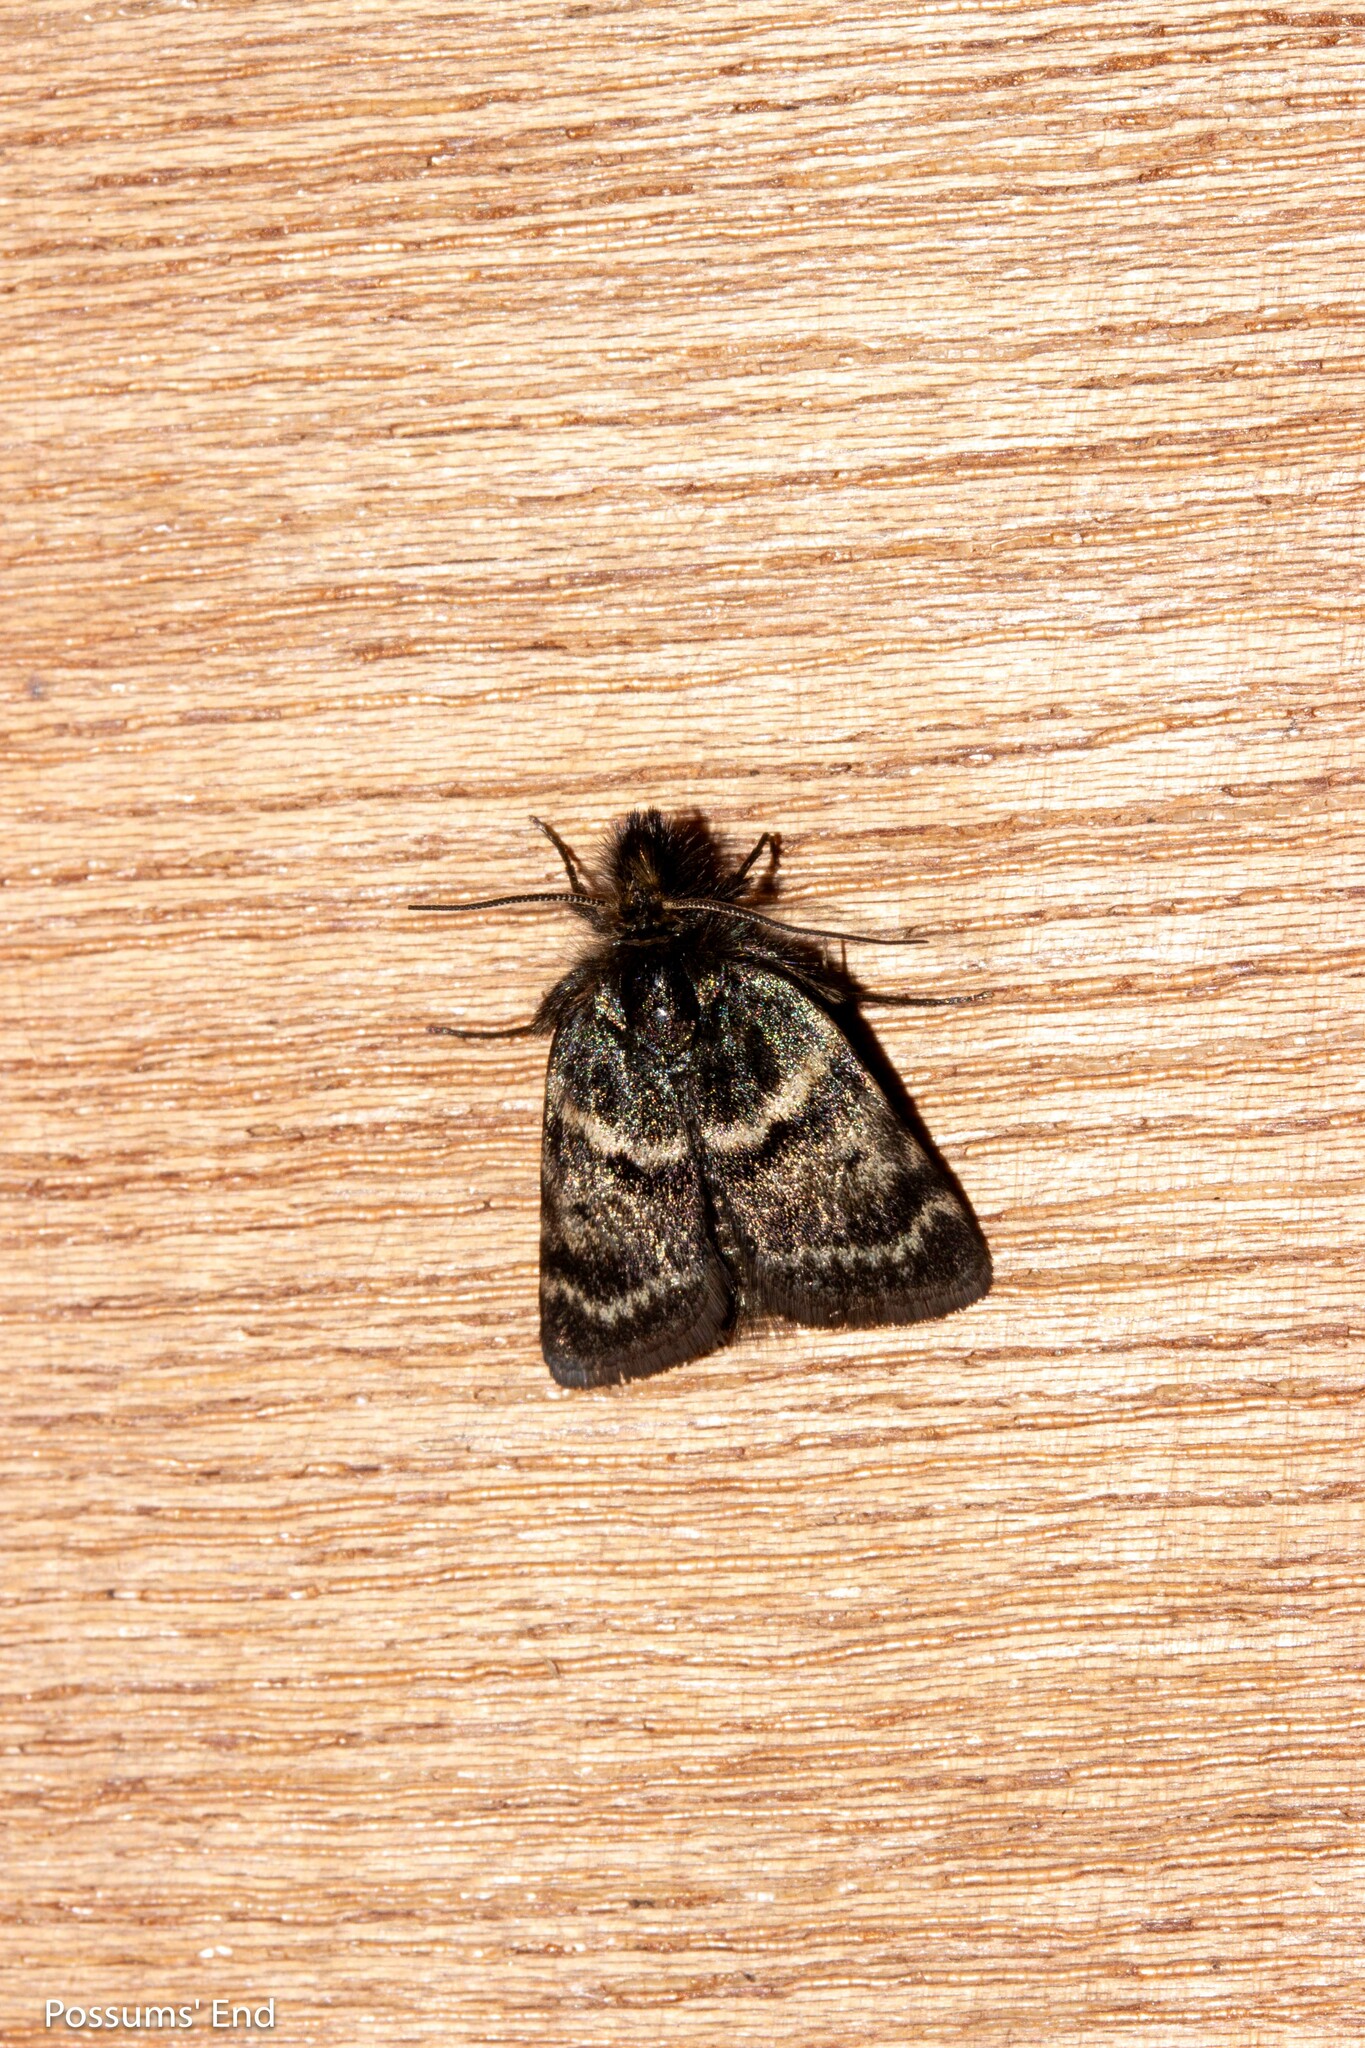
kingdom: Animalia
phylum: Arthropoda
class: Insecta
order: Lepidoptera
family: Crambidae
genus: Tauroscopa
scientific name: Tauroscopa gorgopis
